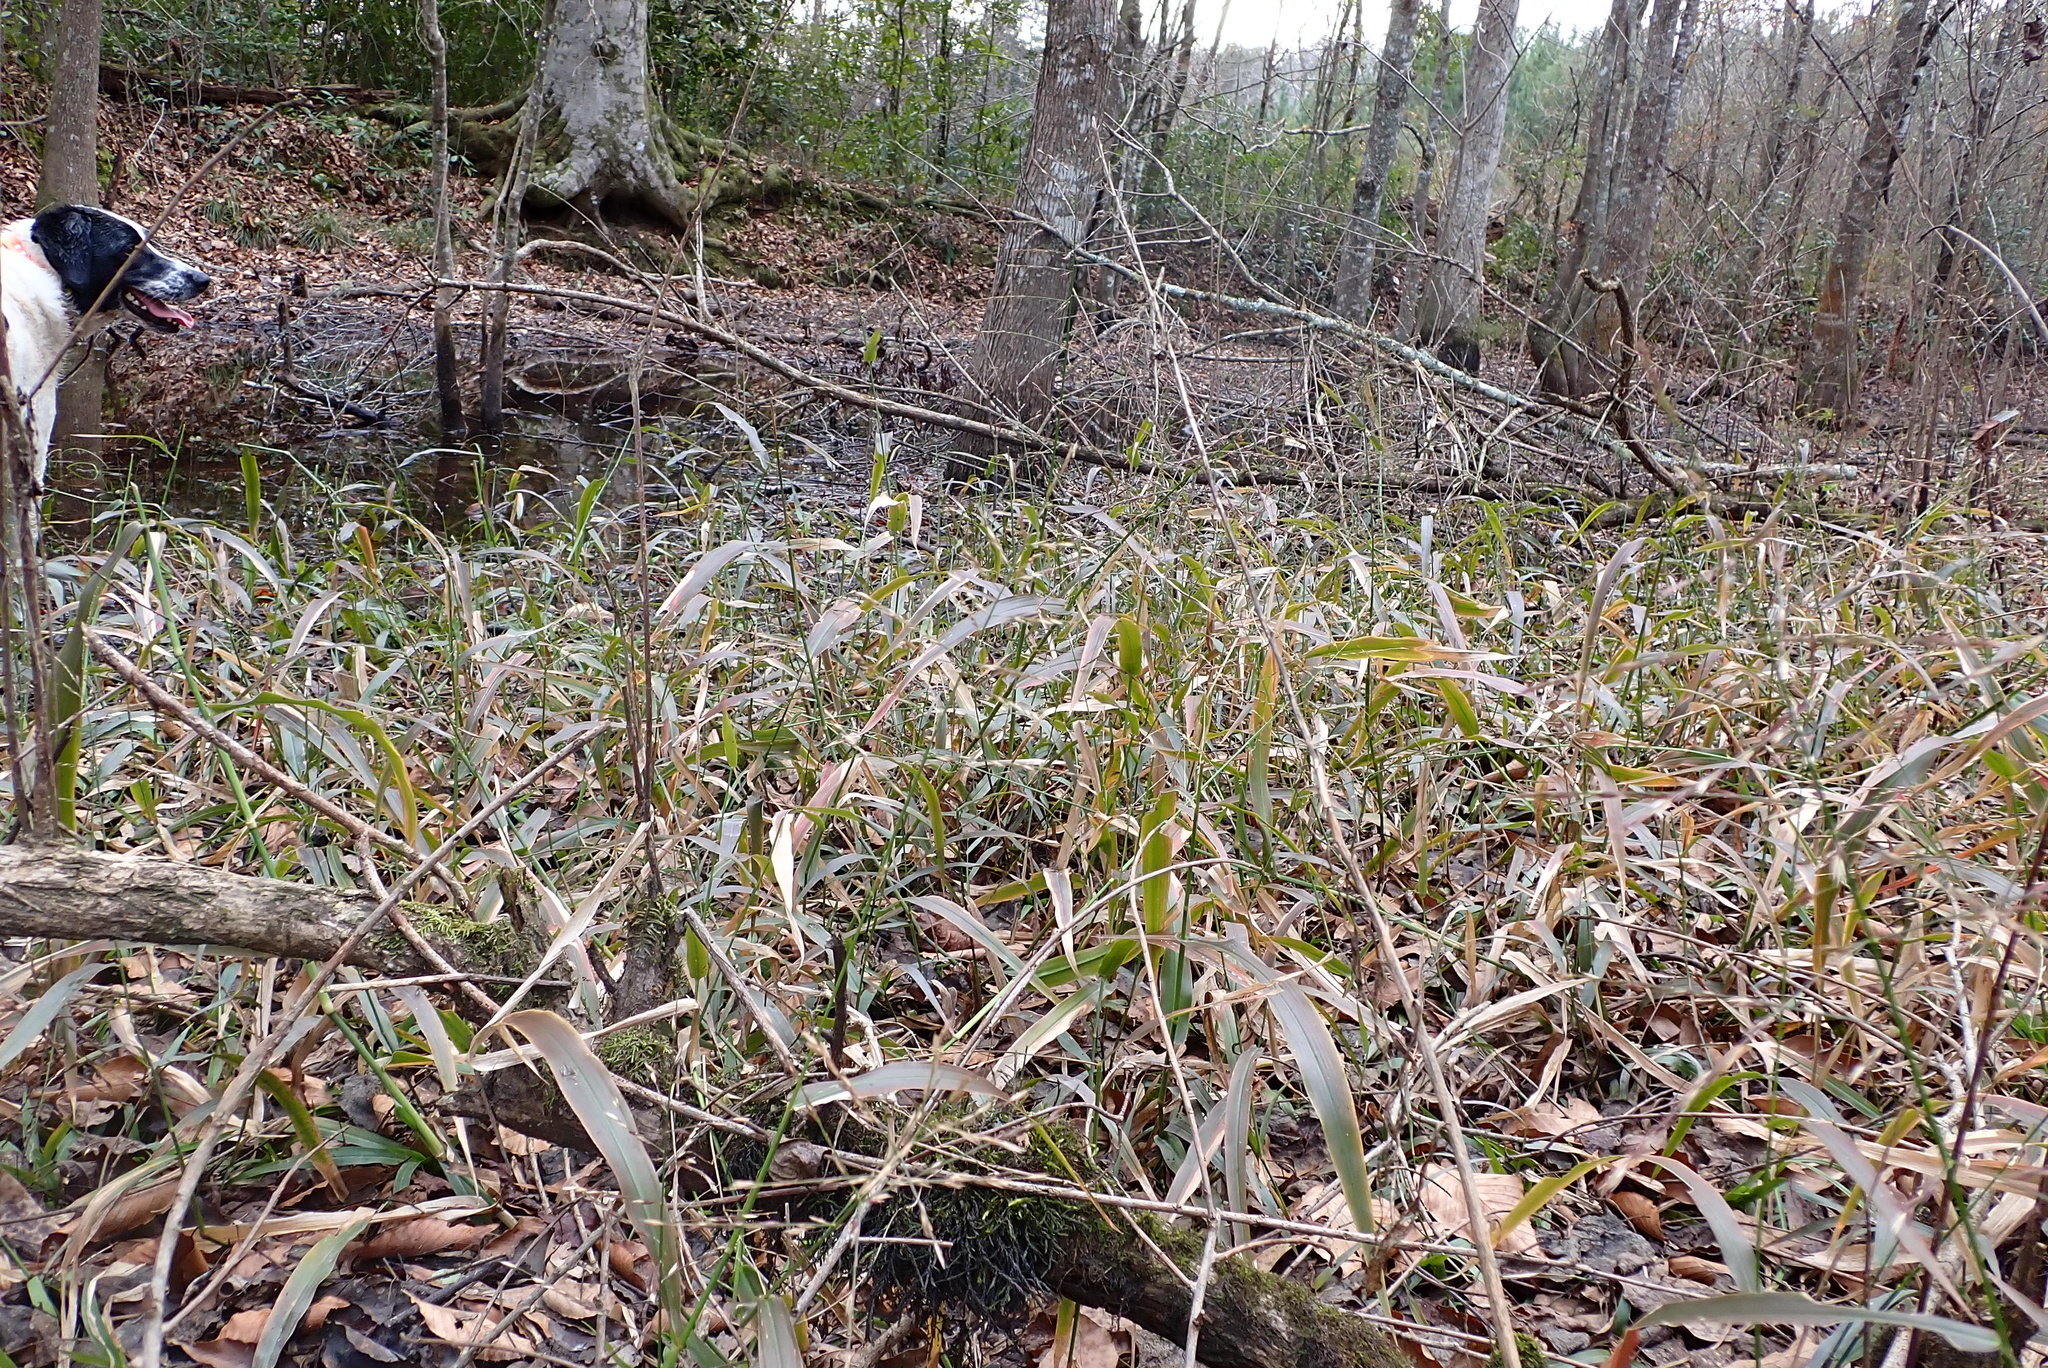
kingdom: Plantae
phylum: Tracheophyta
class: Liliopsida
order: Poales
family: Poaceae
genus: Panicum
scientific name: Panicum gymnocarpon
